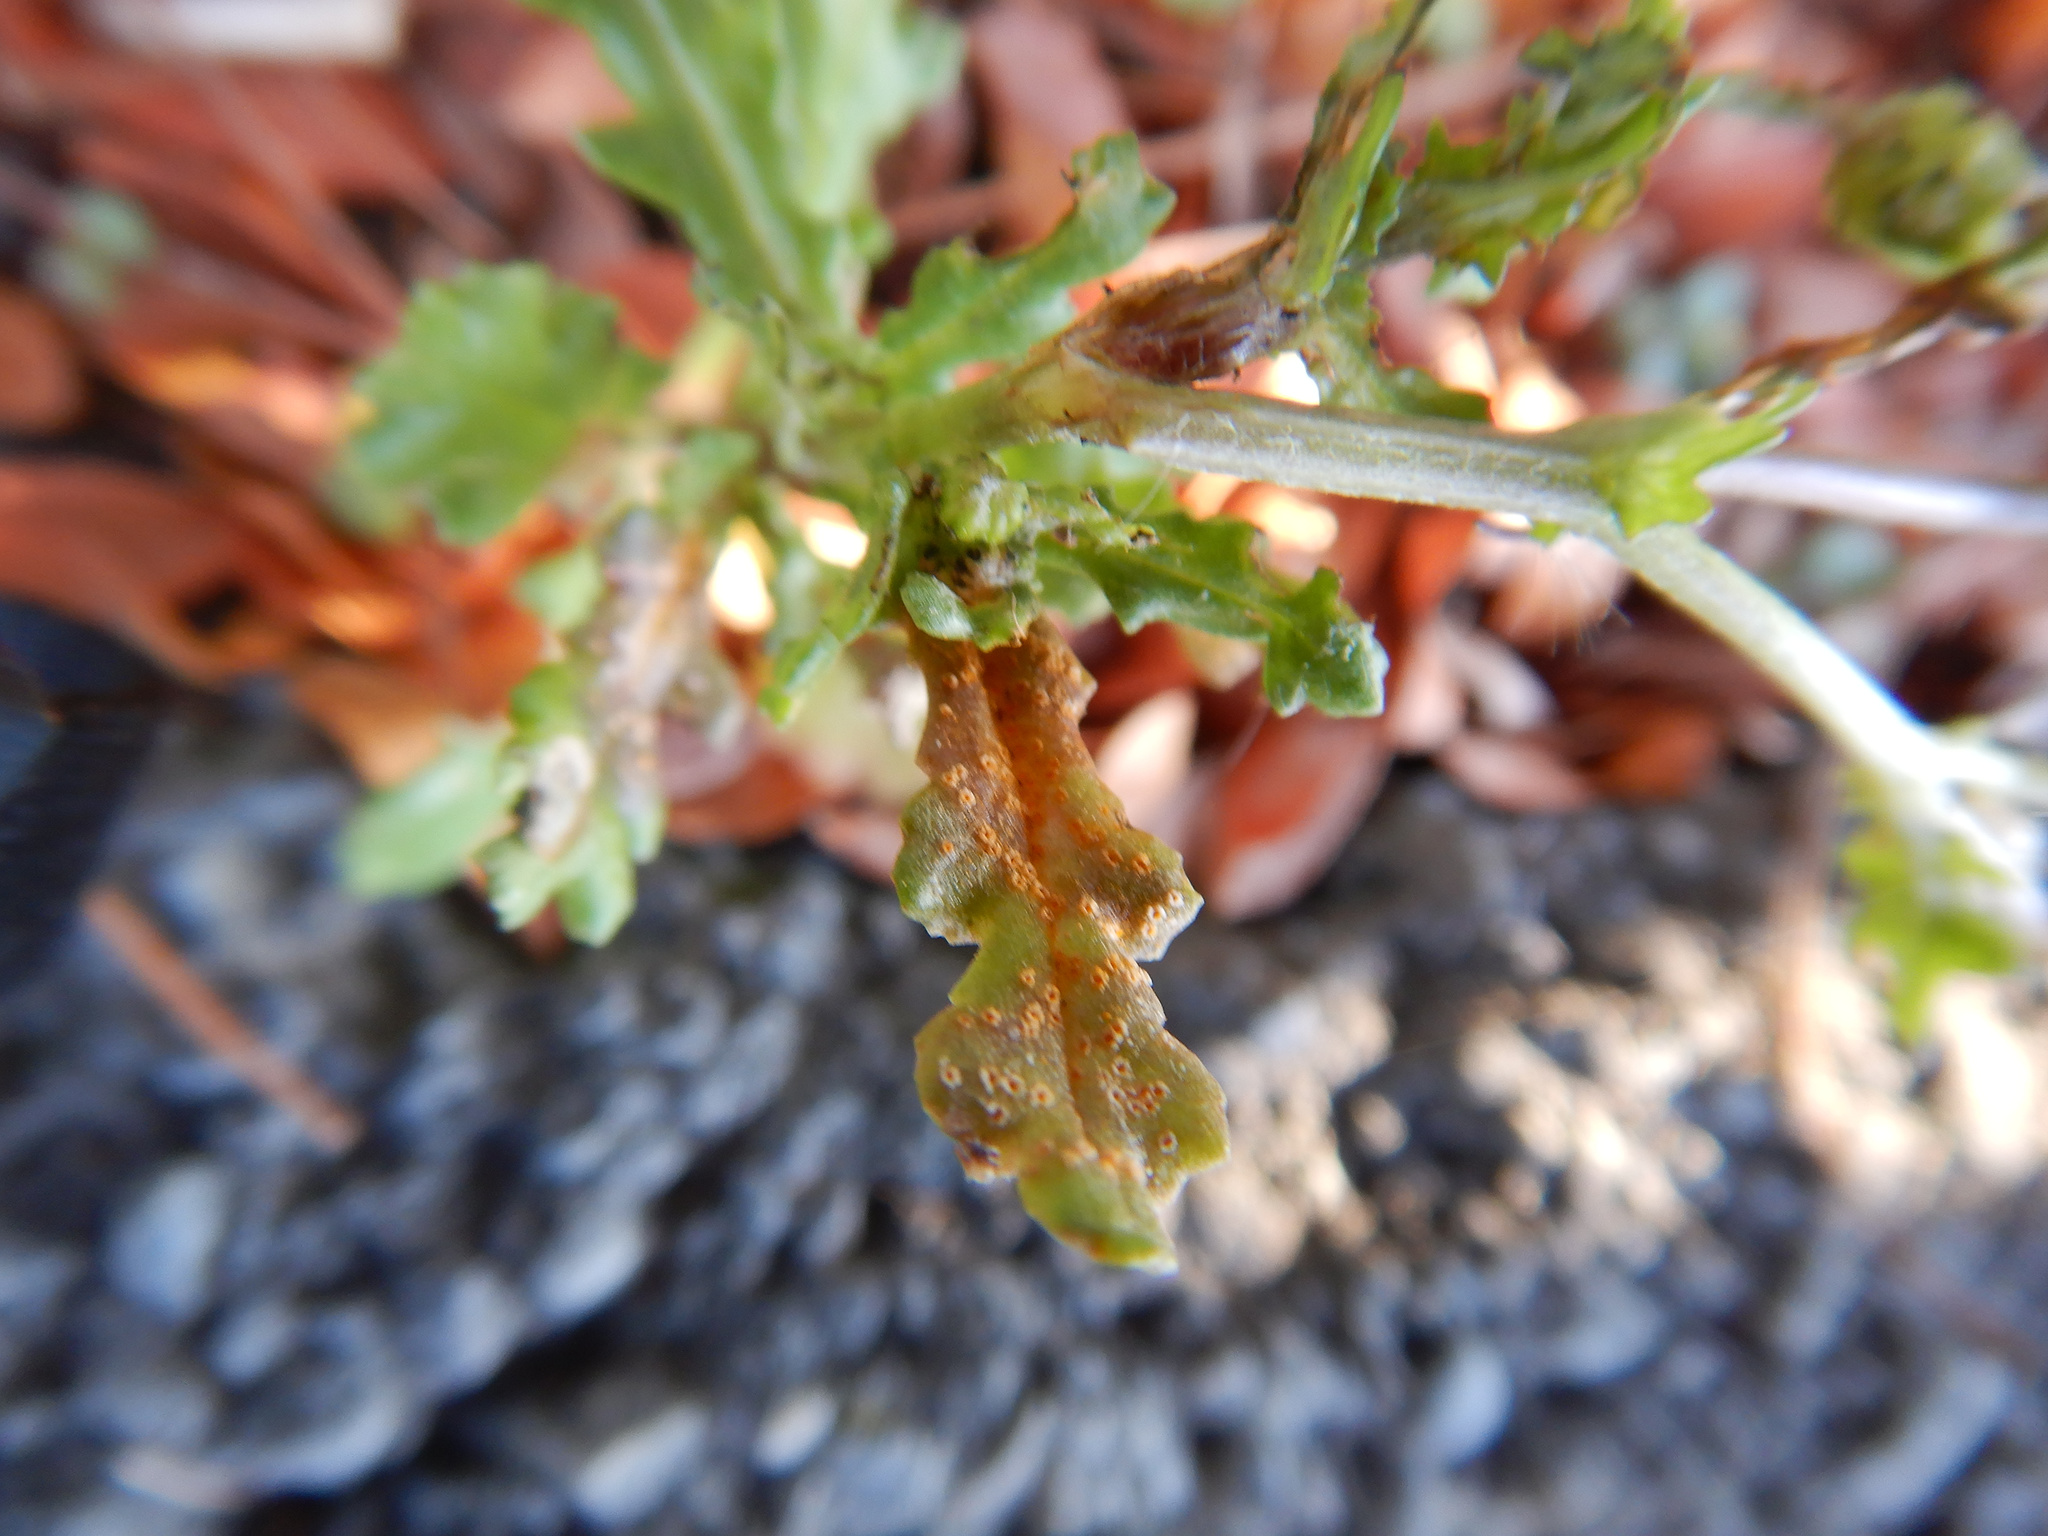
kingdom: Fungi
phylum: Basidiomycota
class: Pucciniomycetes
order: Pucciniales
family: Pucciniaceae
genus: Puccinia
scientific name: Puccinia lagenophorae
